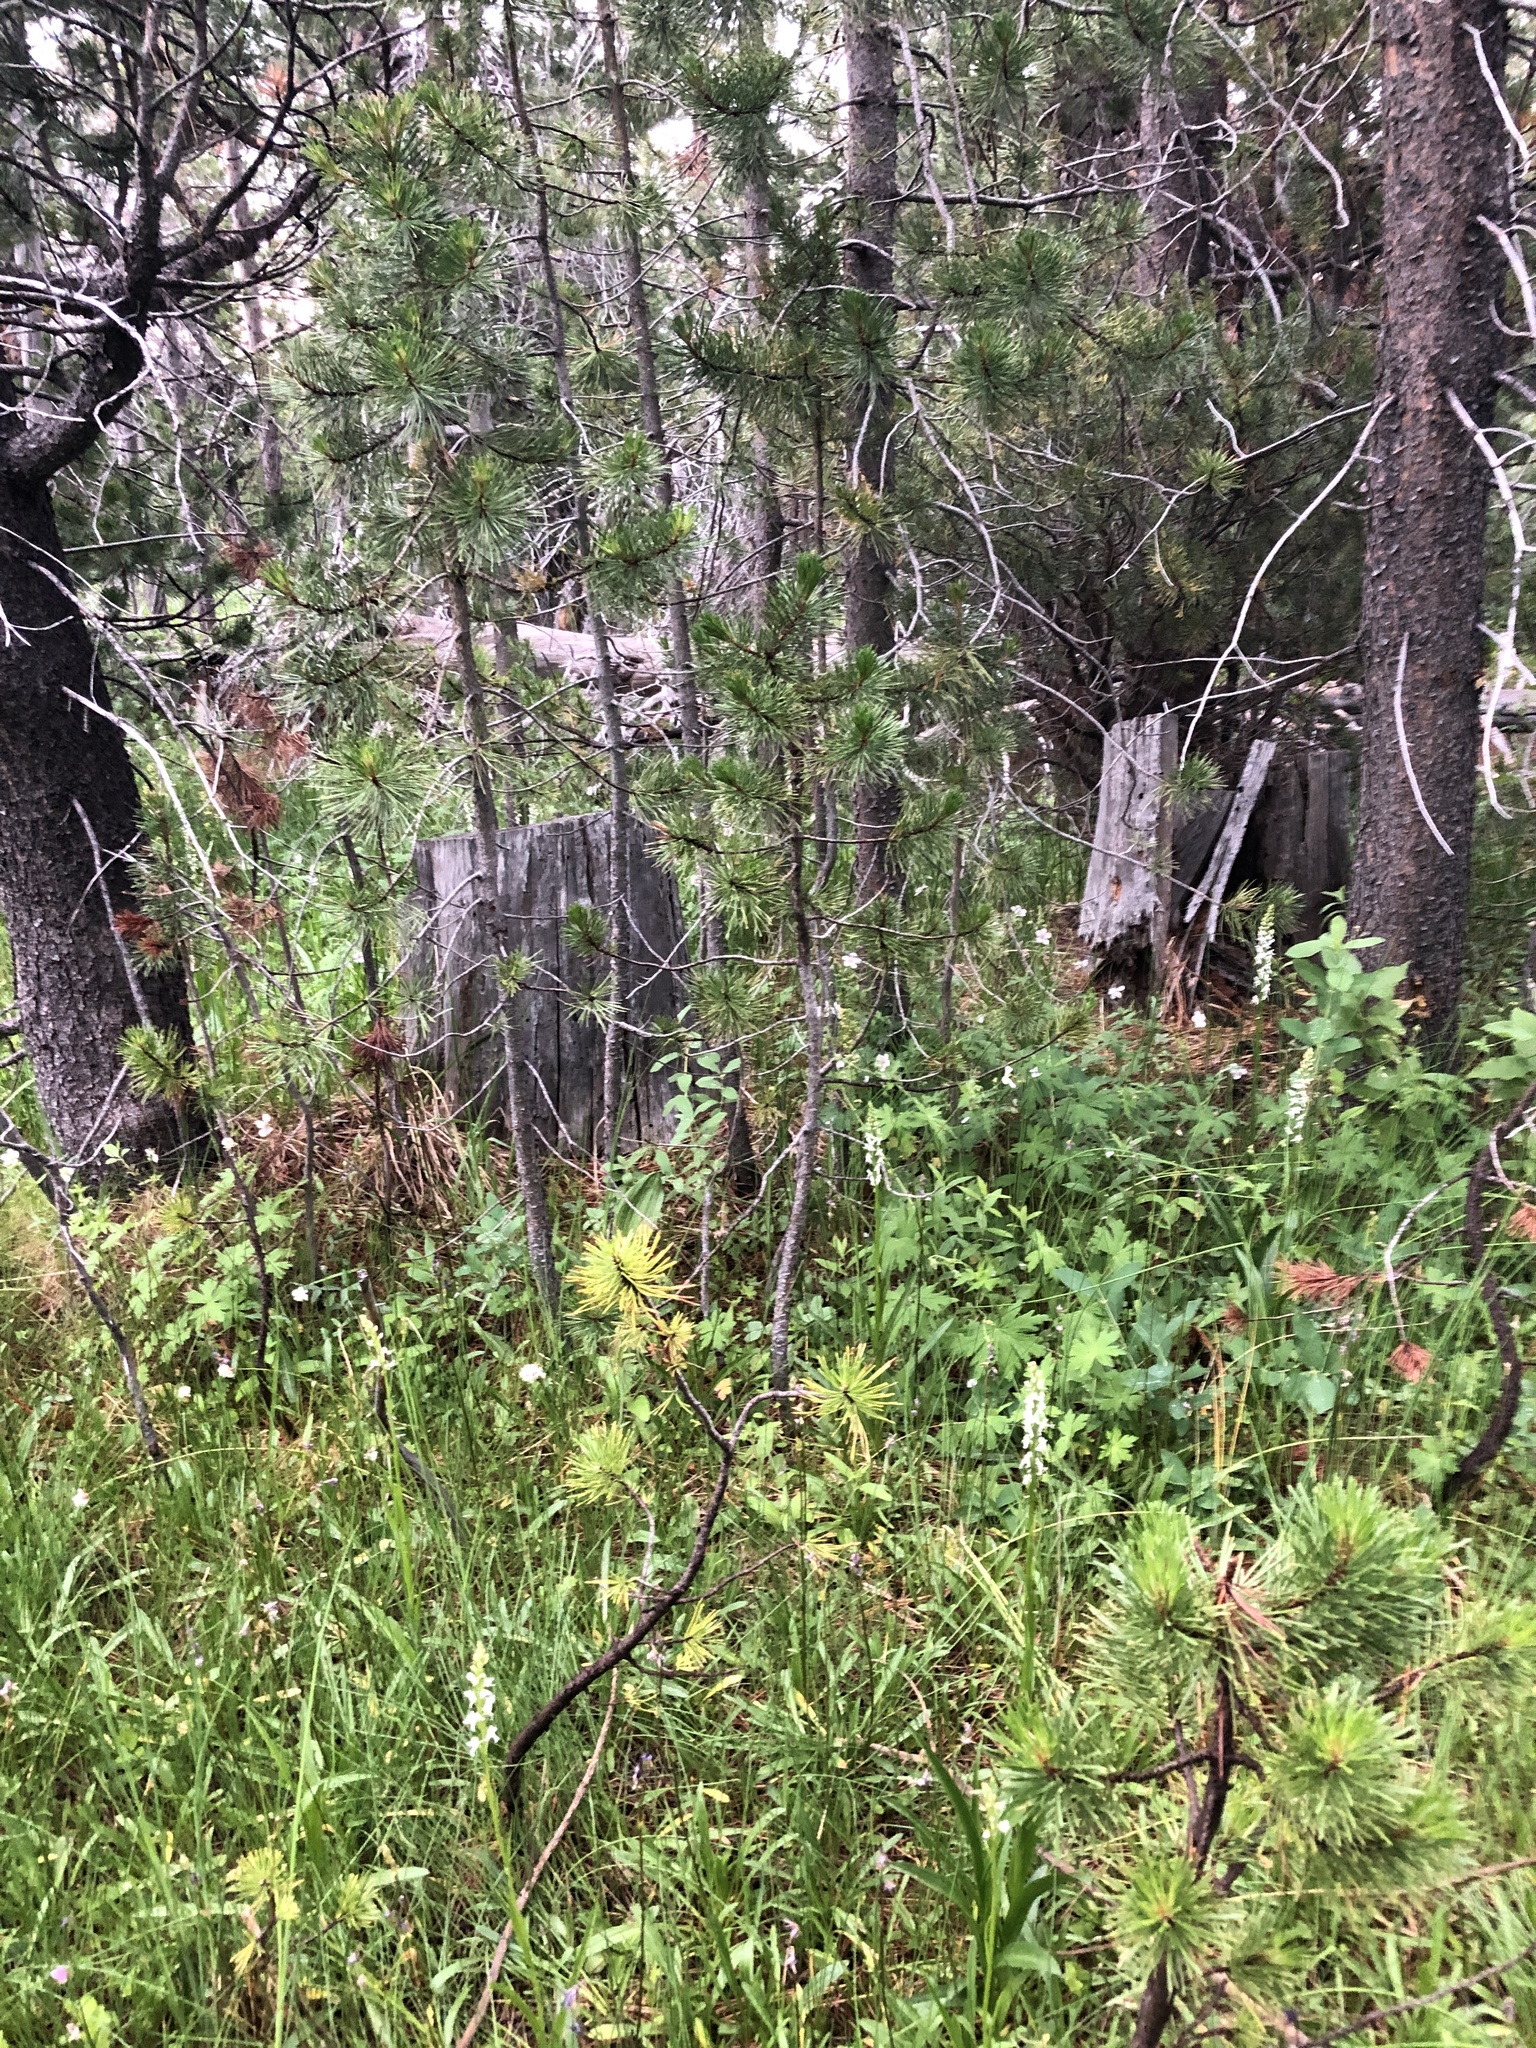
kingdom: Plantae
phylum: Tracheophyta
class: Liliopsida
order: Asparagales
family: Orchidaceae
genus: Platanthera
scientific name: Platanthera dilatata
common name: Bog candles
